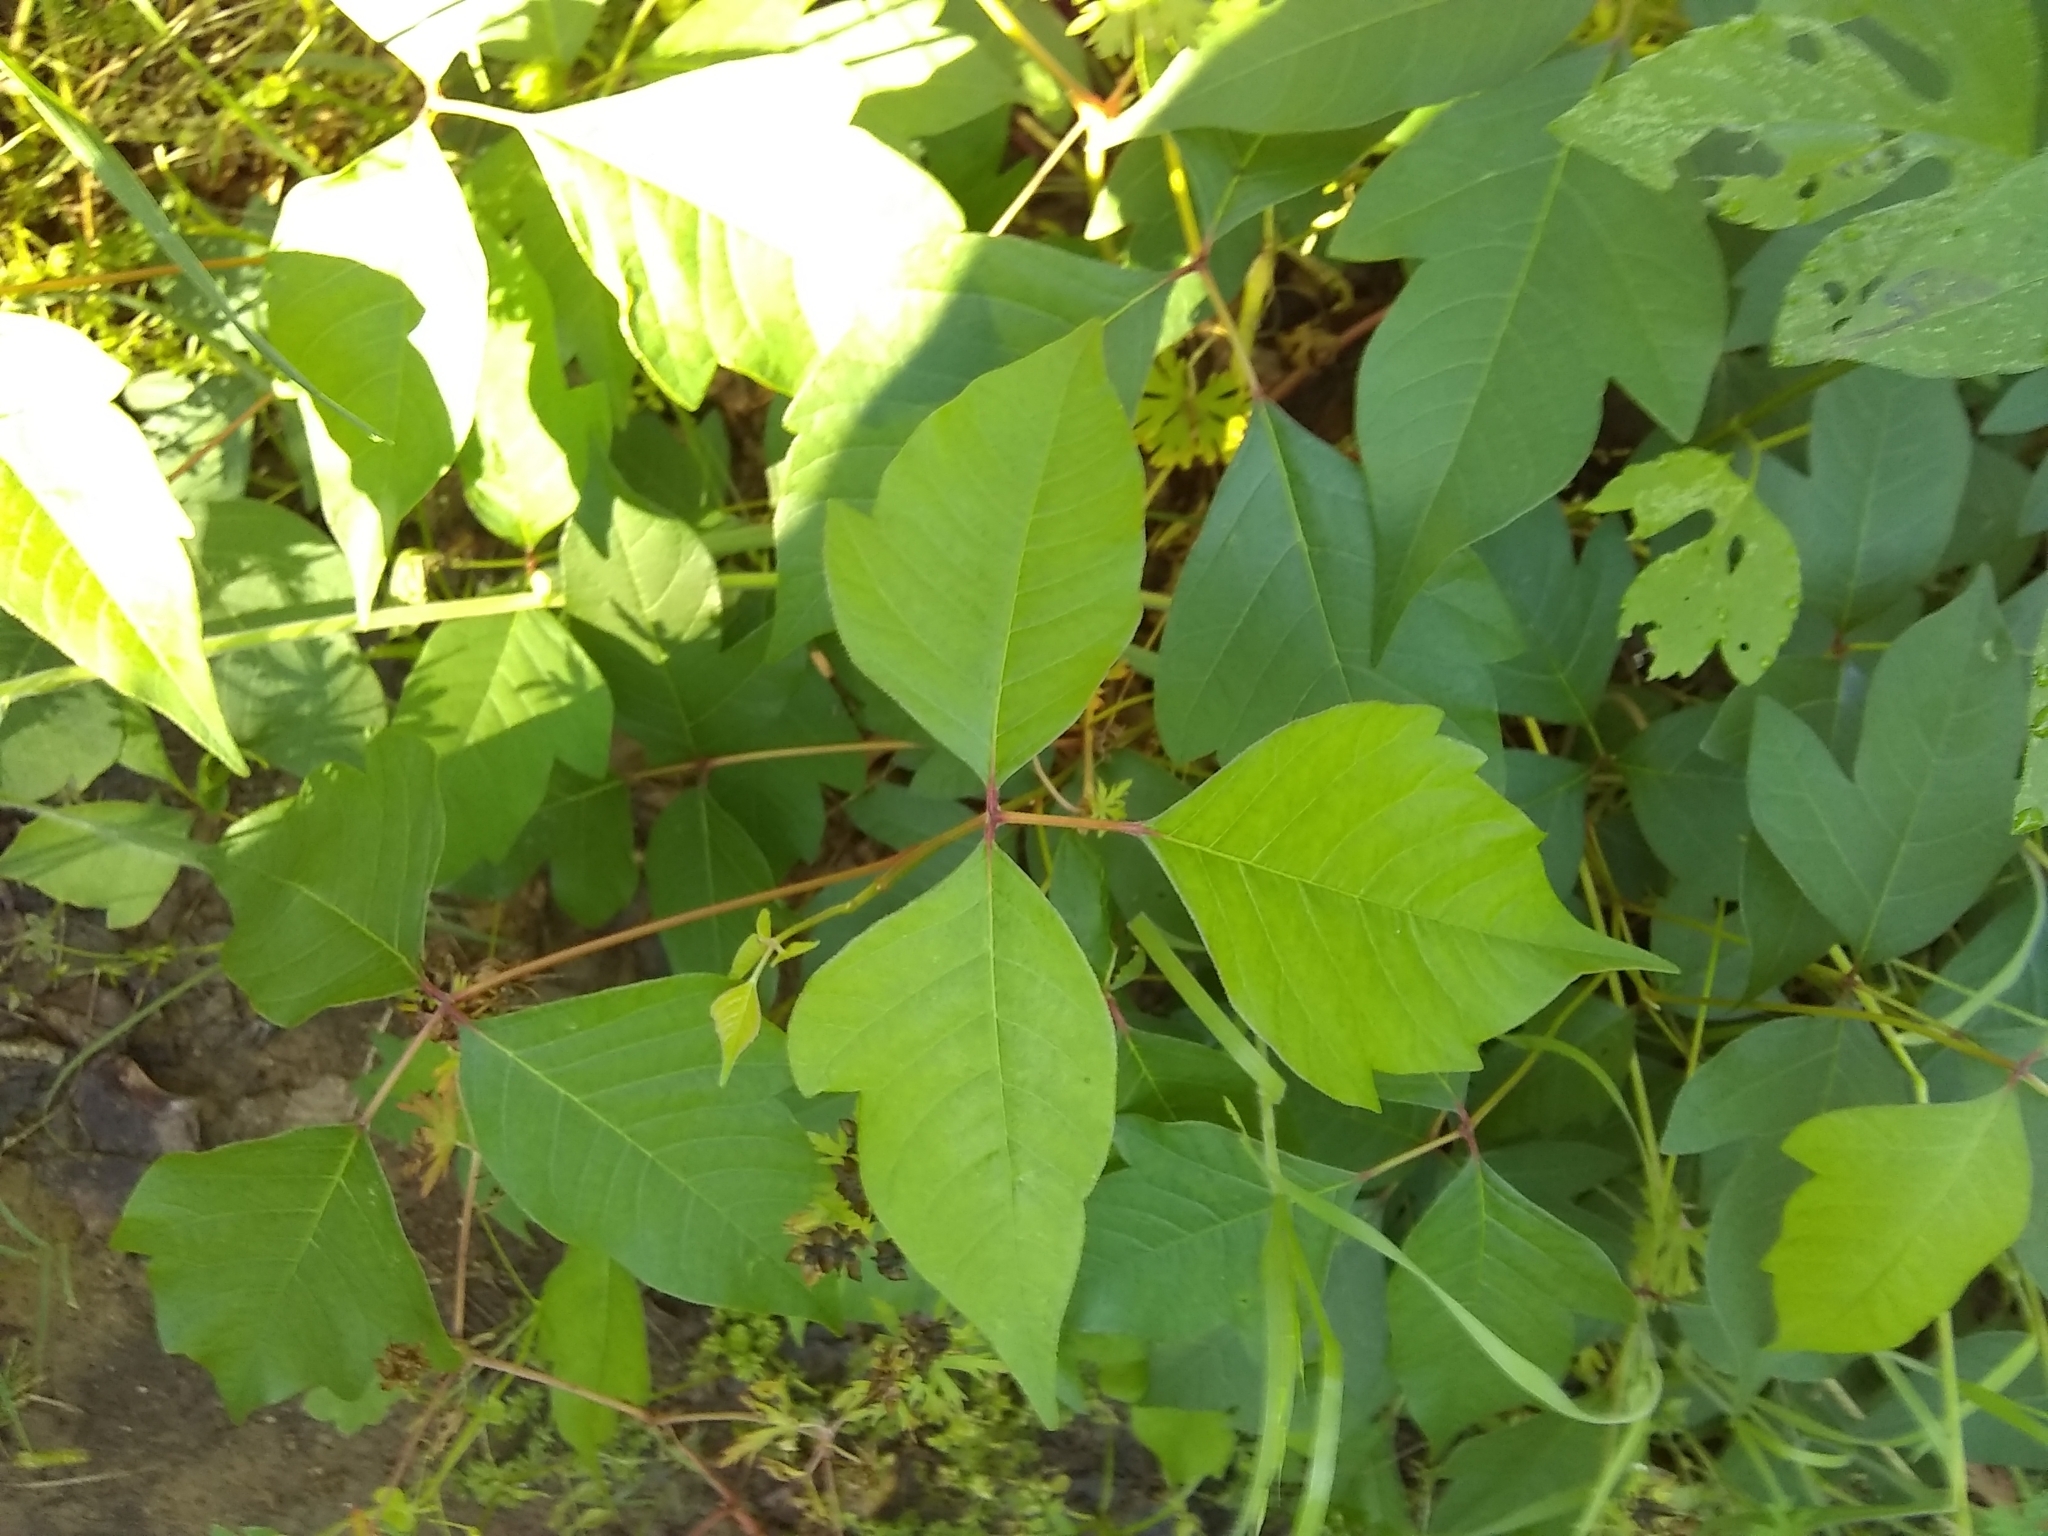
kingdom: Plantae
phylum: Tracheophyta
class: Magnoliopsida
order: Sapindales
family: Anacardiaceae
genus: Toxicodendron
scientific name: Toxicodendron radicans
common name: Poison ivy
